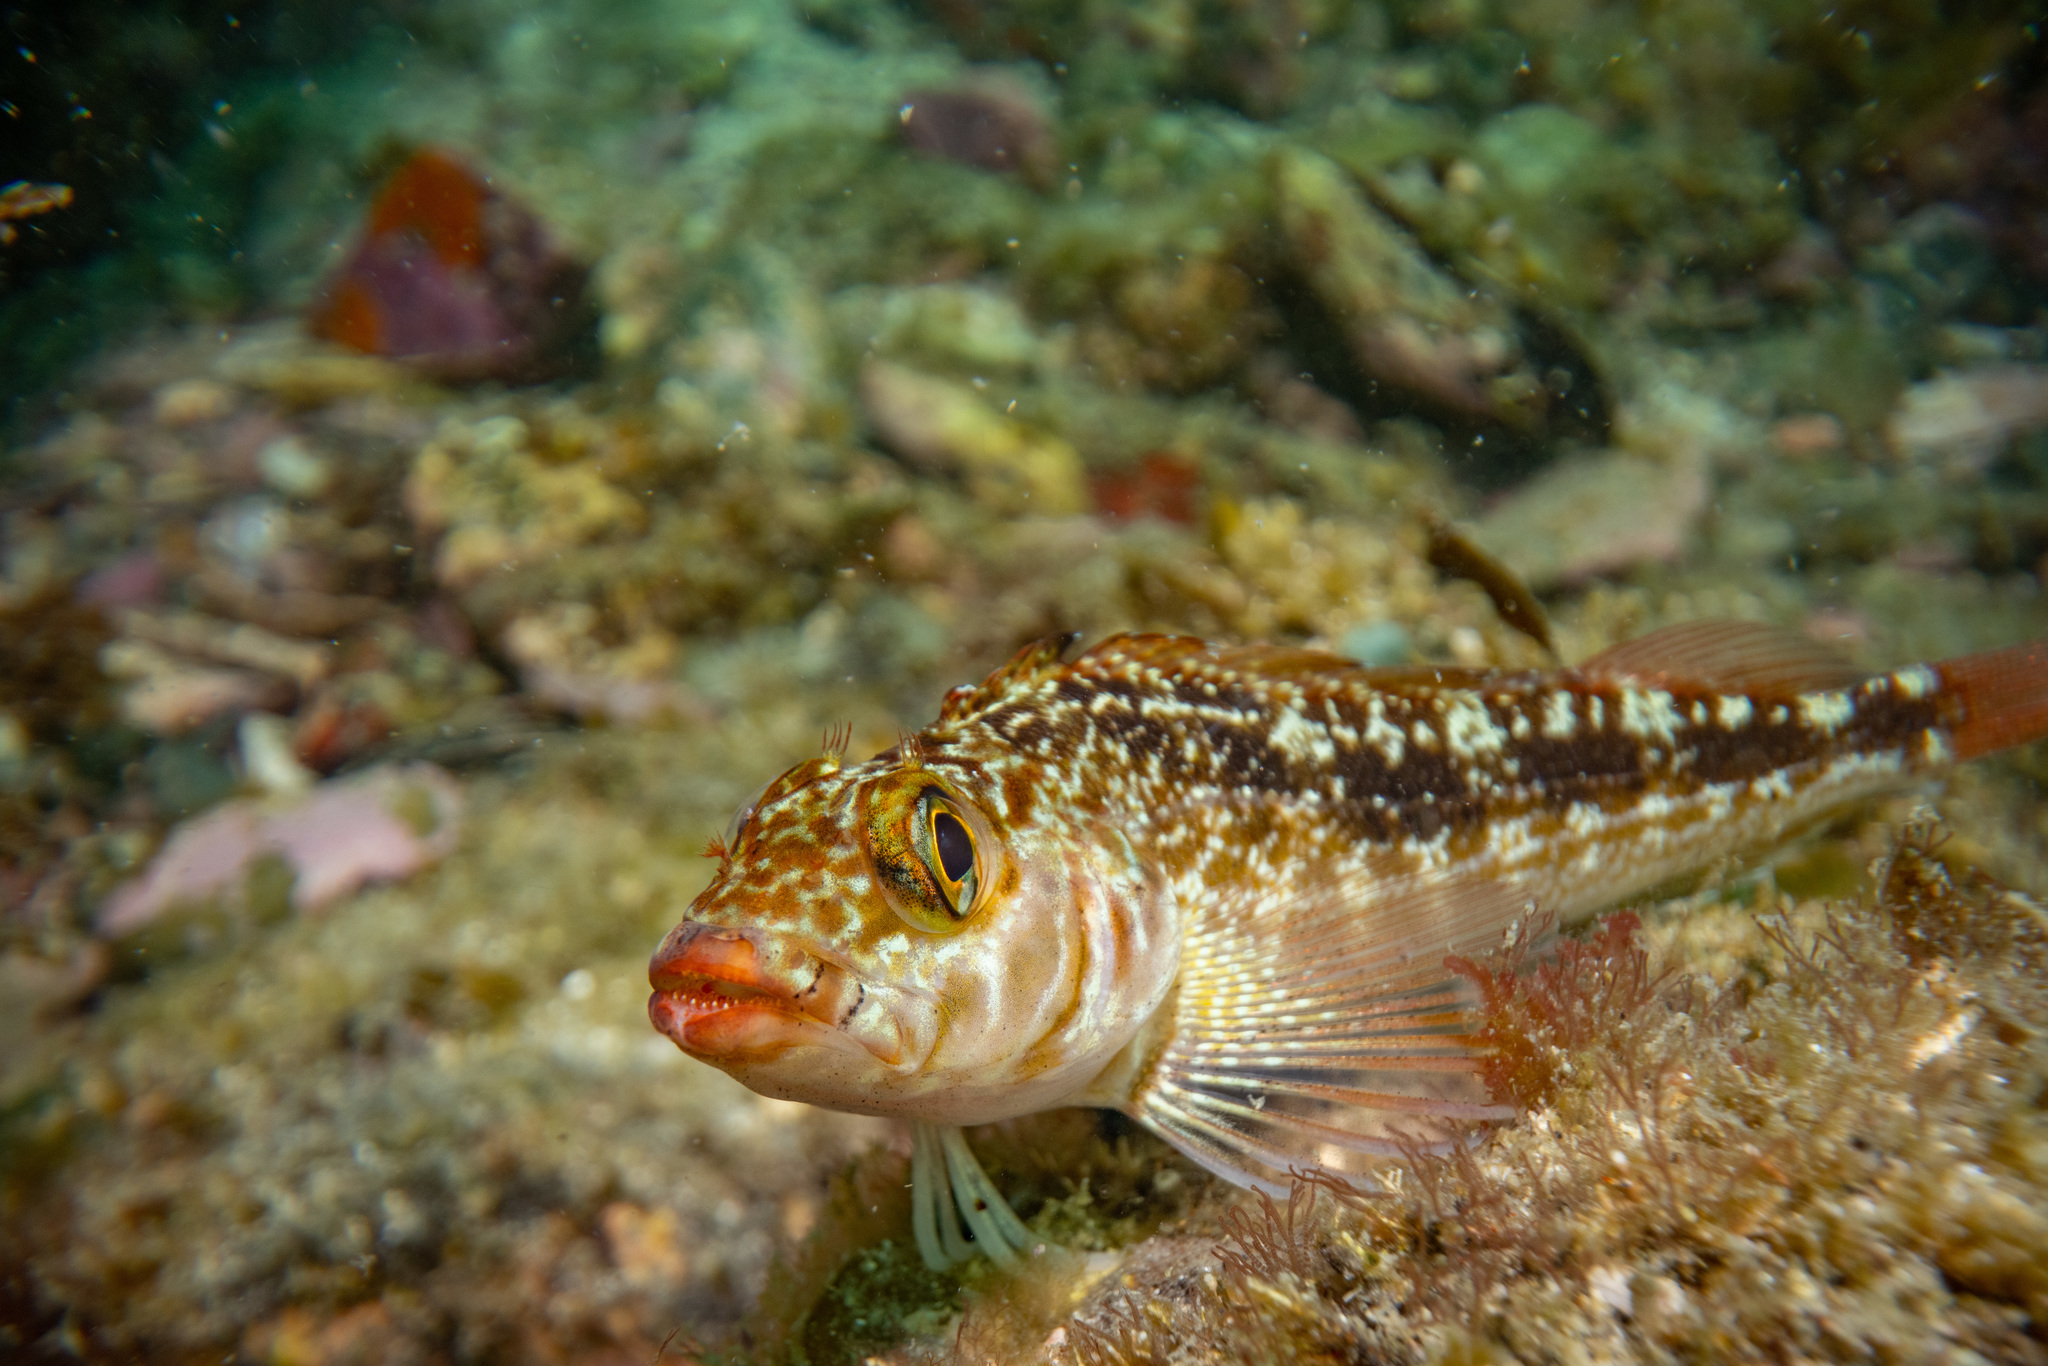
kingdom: Animalia
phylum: Chordata
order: Perciformes
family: Tripterygiidae
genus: Forsterygion
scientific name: Forsterygion varium
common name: Variable triplefin
